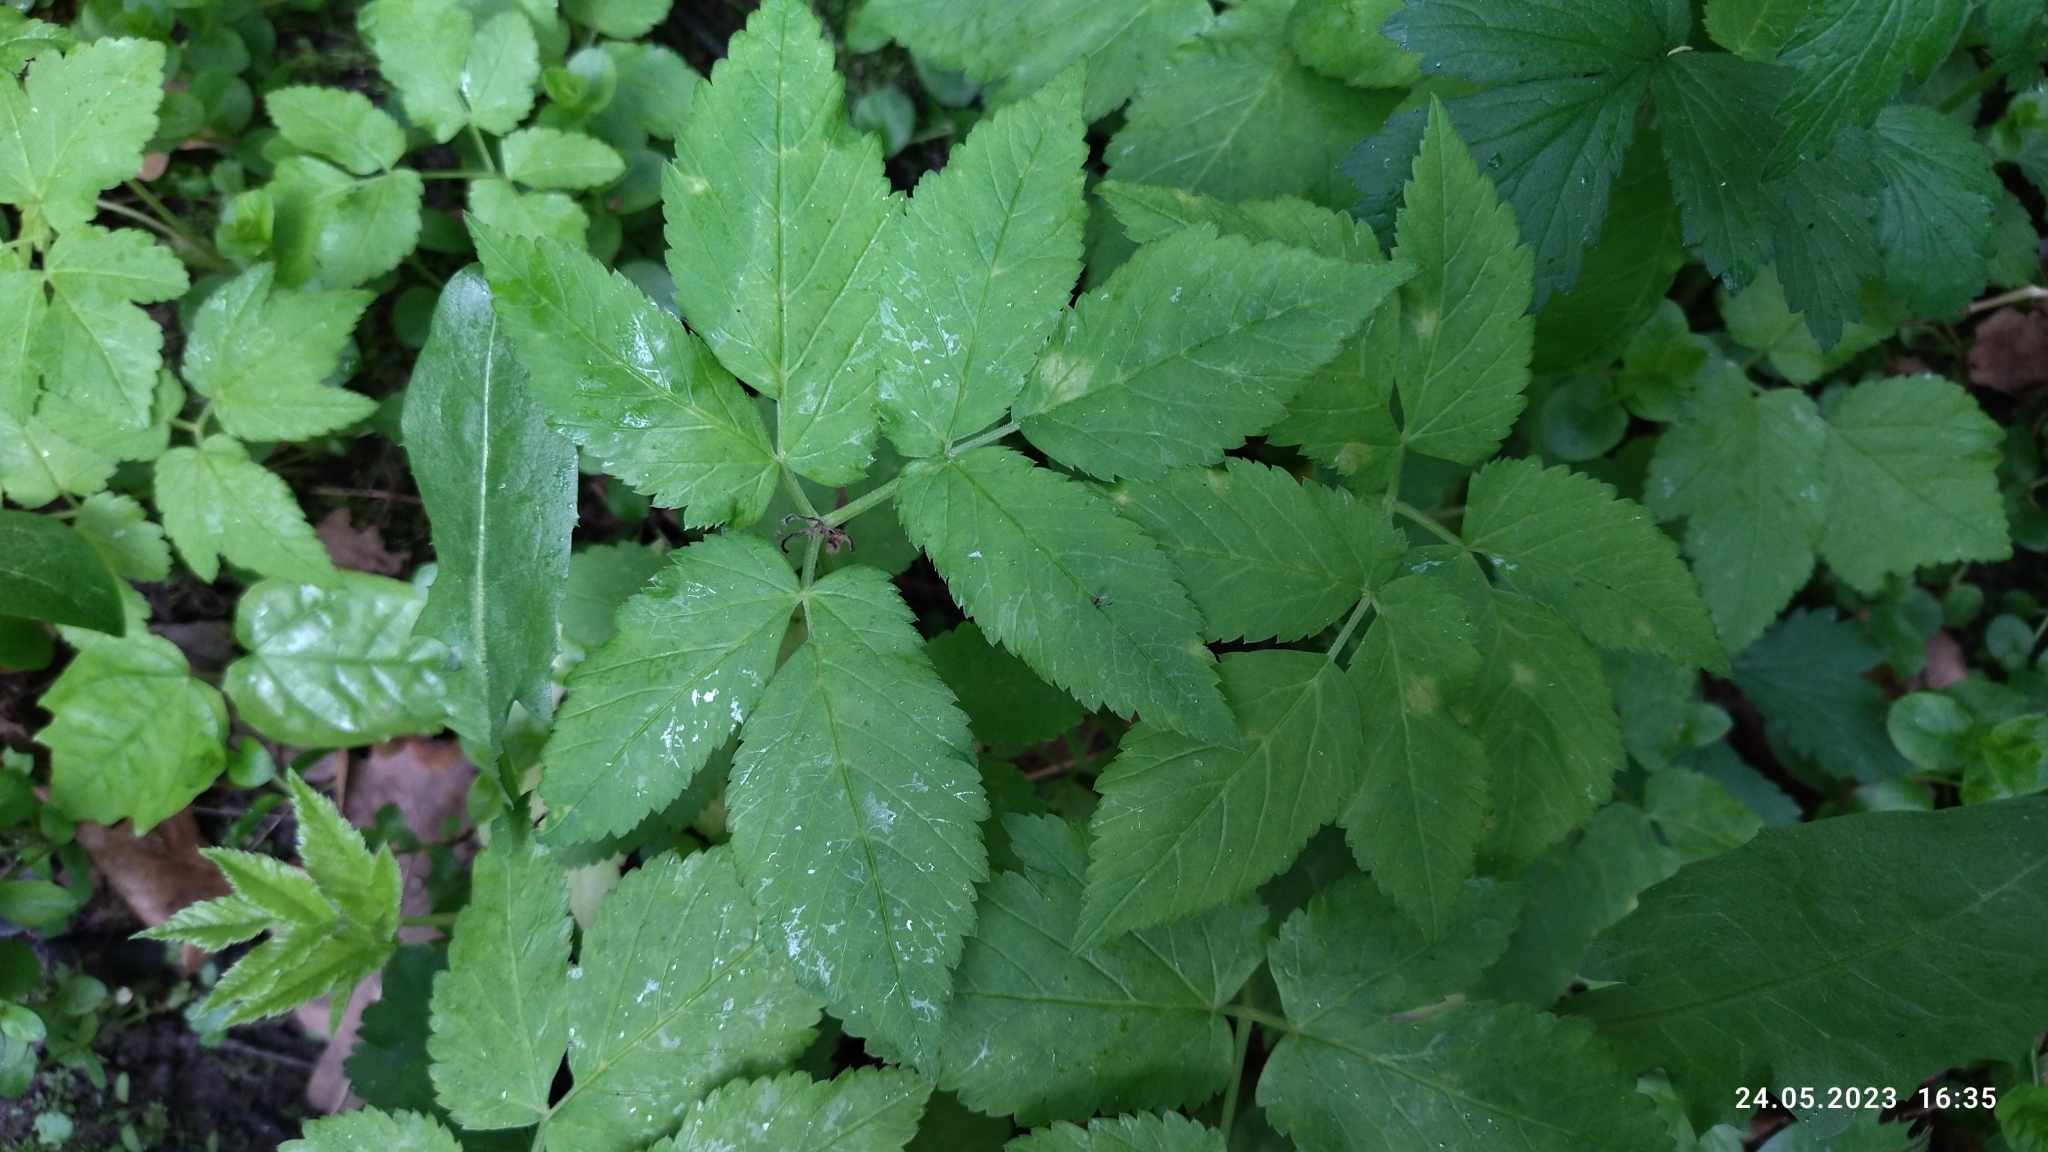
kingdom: Plantae
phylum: Tracheophyta
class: Magnoliopsida
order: Apiales
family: Apiaceae
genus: Aegopodium
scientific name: Aegopodium podagraria
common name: Ground-elder
